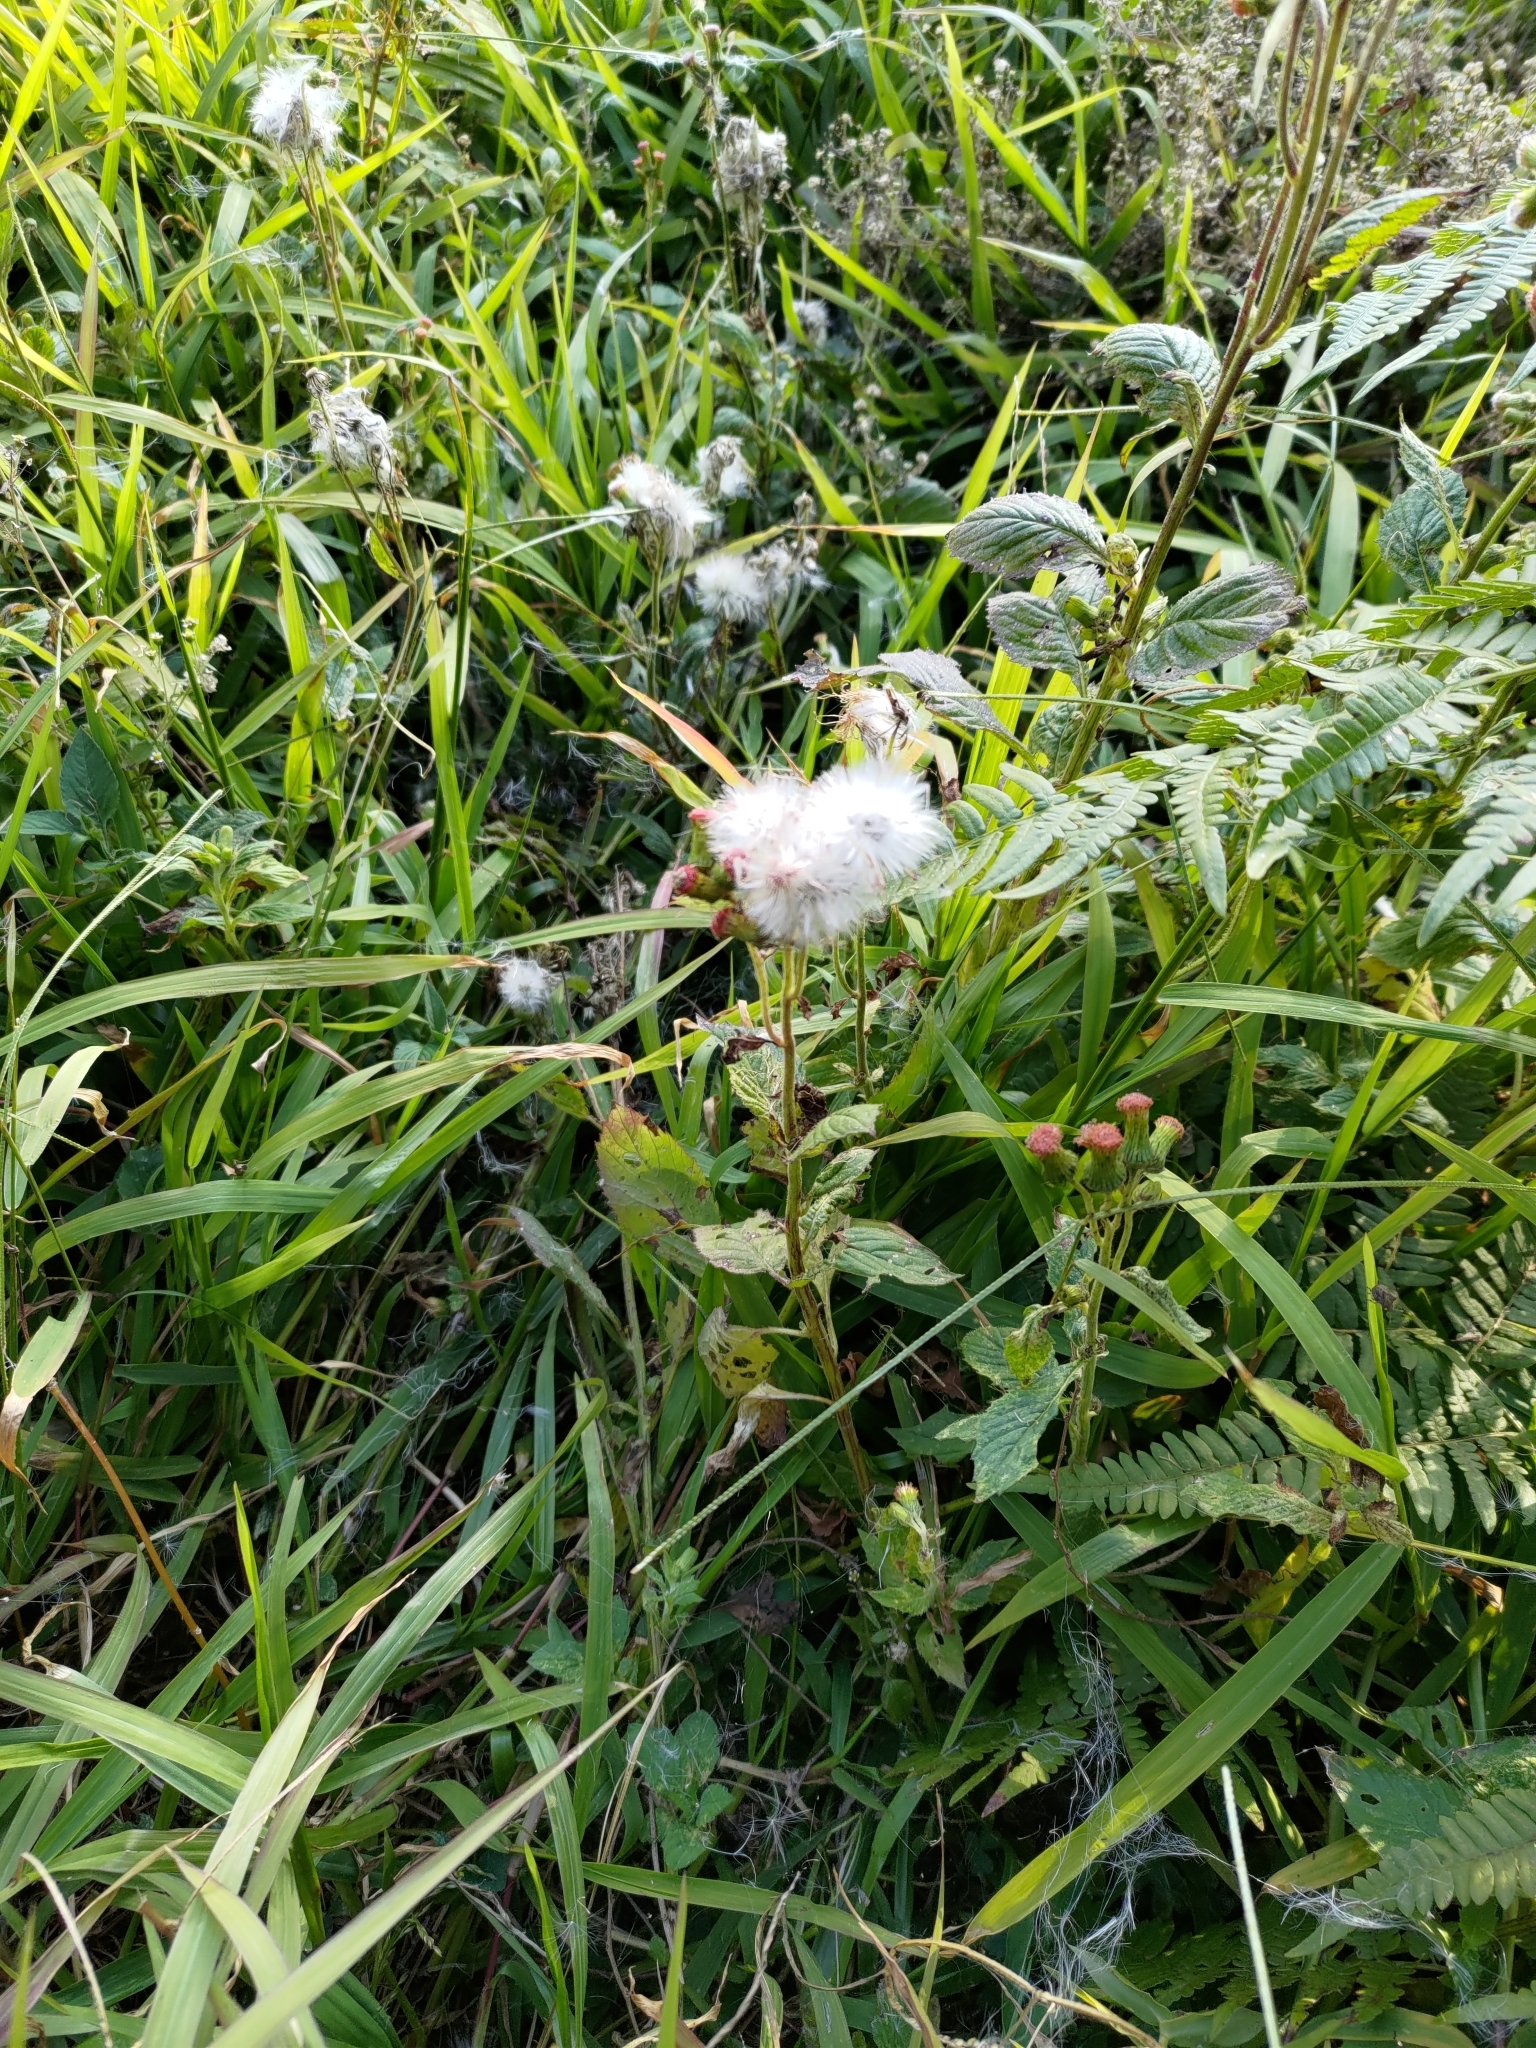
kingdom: Plantae
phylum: Tracheophyta
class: Magnoliopsida
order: Asterales
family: Asteraceae
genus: Crassocephalum
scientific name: Crassocephalum crepidioides
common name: Redflower ragleaf
